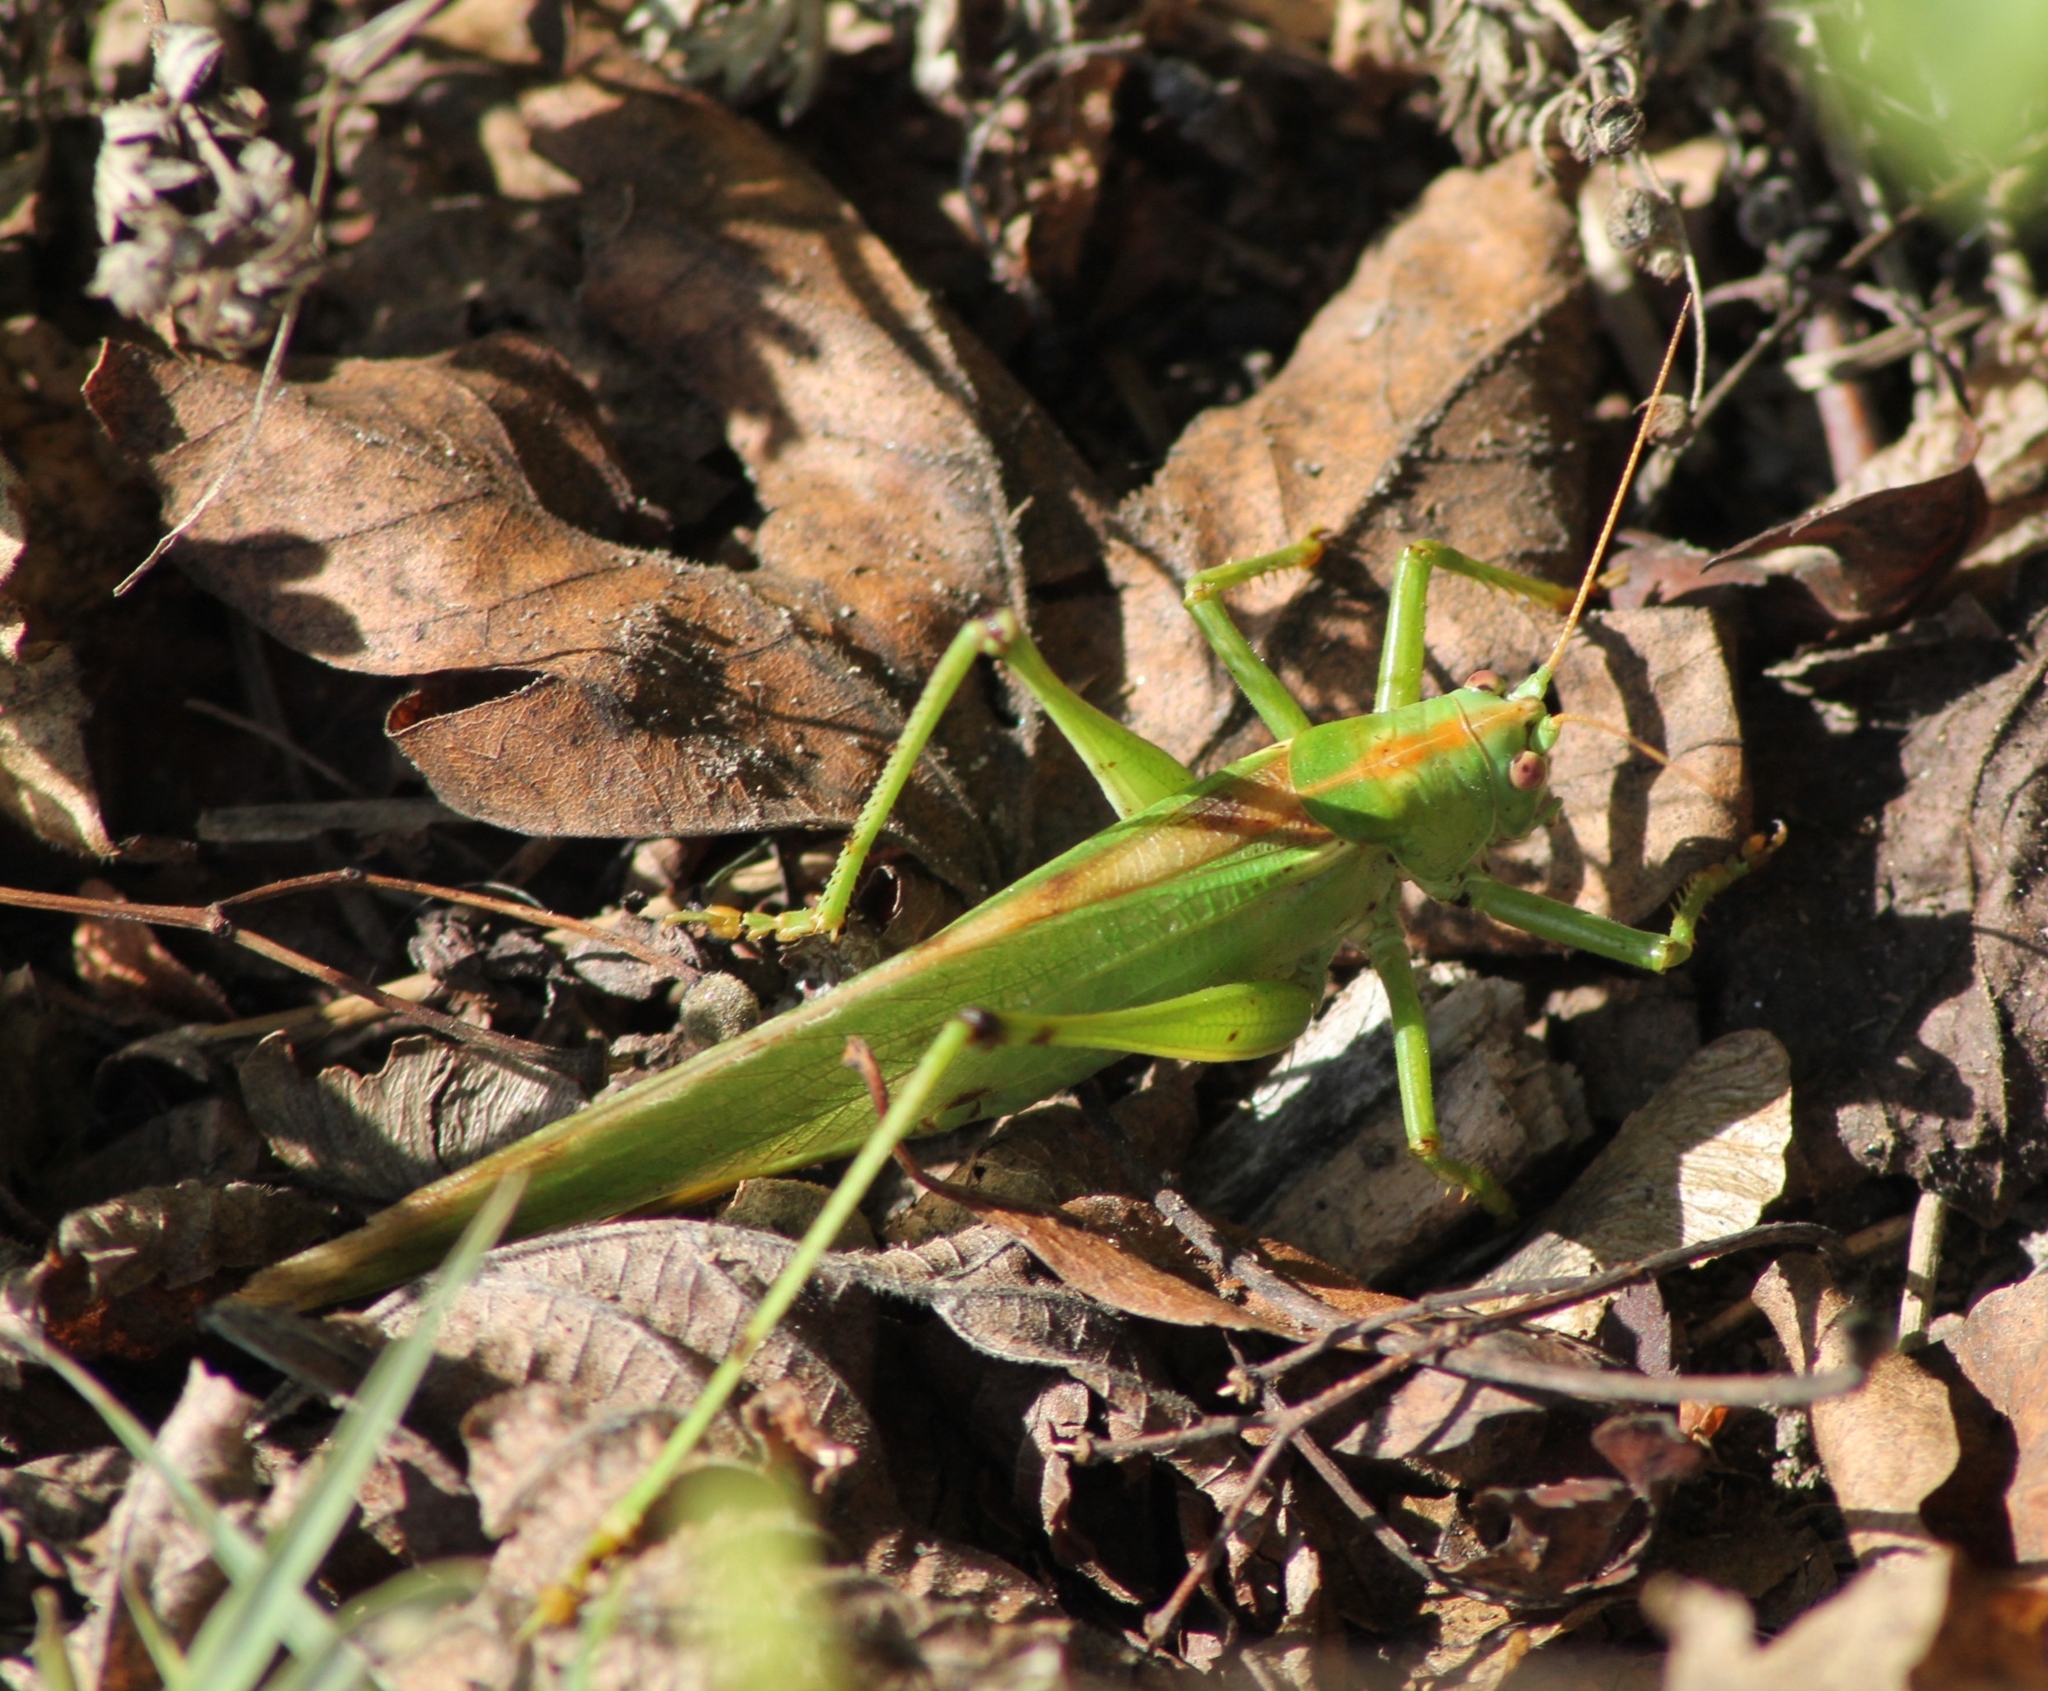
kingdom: Animalia
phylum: Arthropoda
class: Insecta
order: Orthoptera
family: Tettigoniidae
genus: Tettigonia
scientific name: Tettigonia viridissima
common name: Great green bush-cricket
